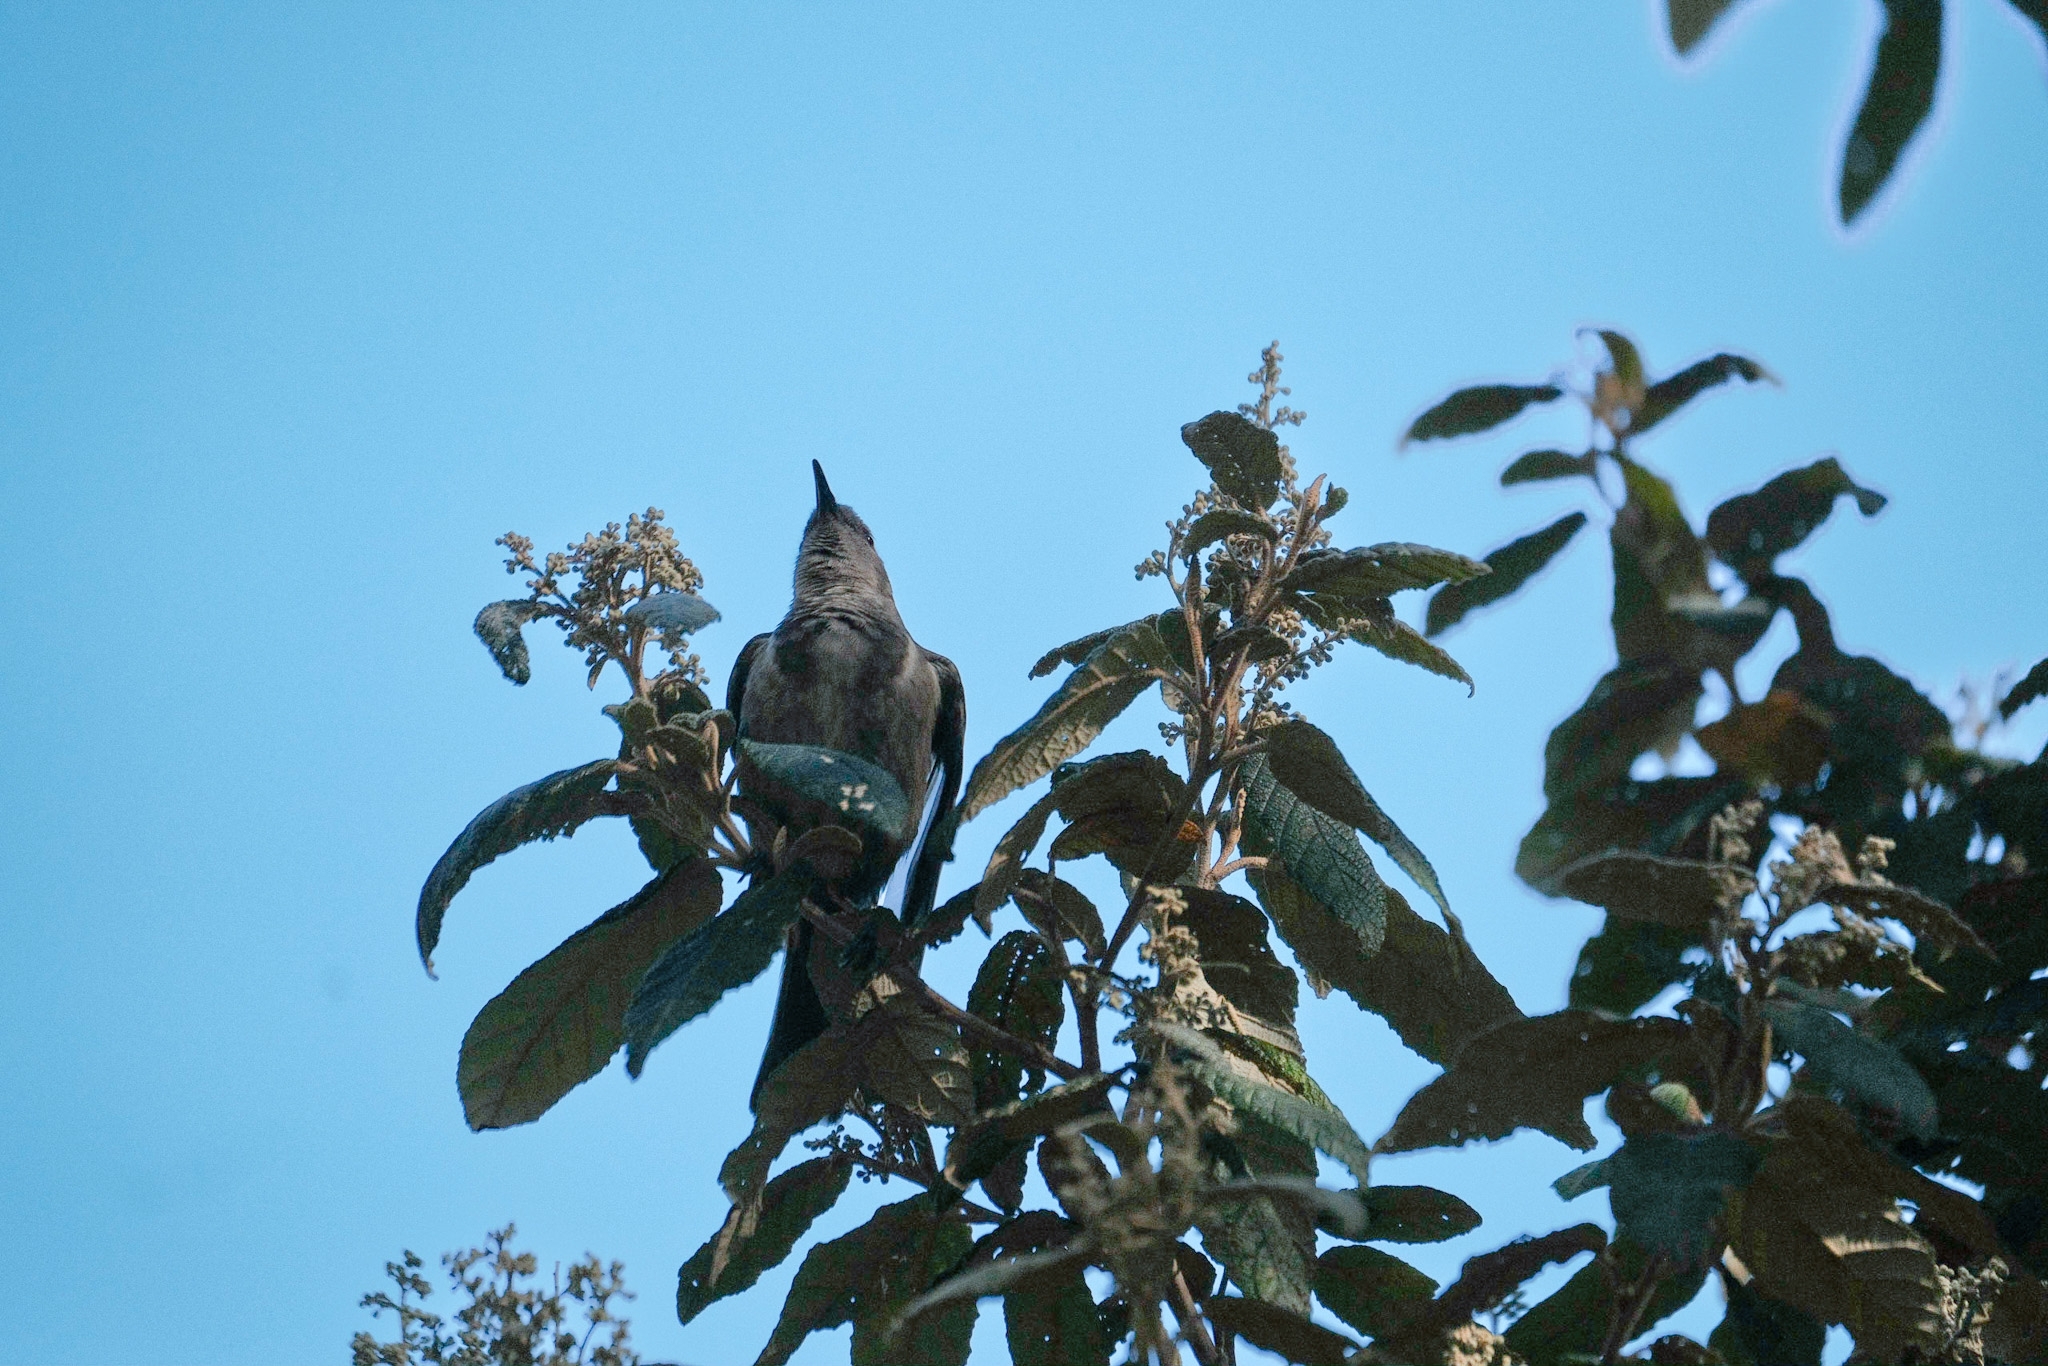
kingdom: Animalia
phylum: Chordata
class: Aves
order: Passeriformes
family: Meliphagidae
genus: Phylidonyris
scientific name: Phylidonyris pyrrhopterus
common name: Crescent honeyeater
